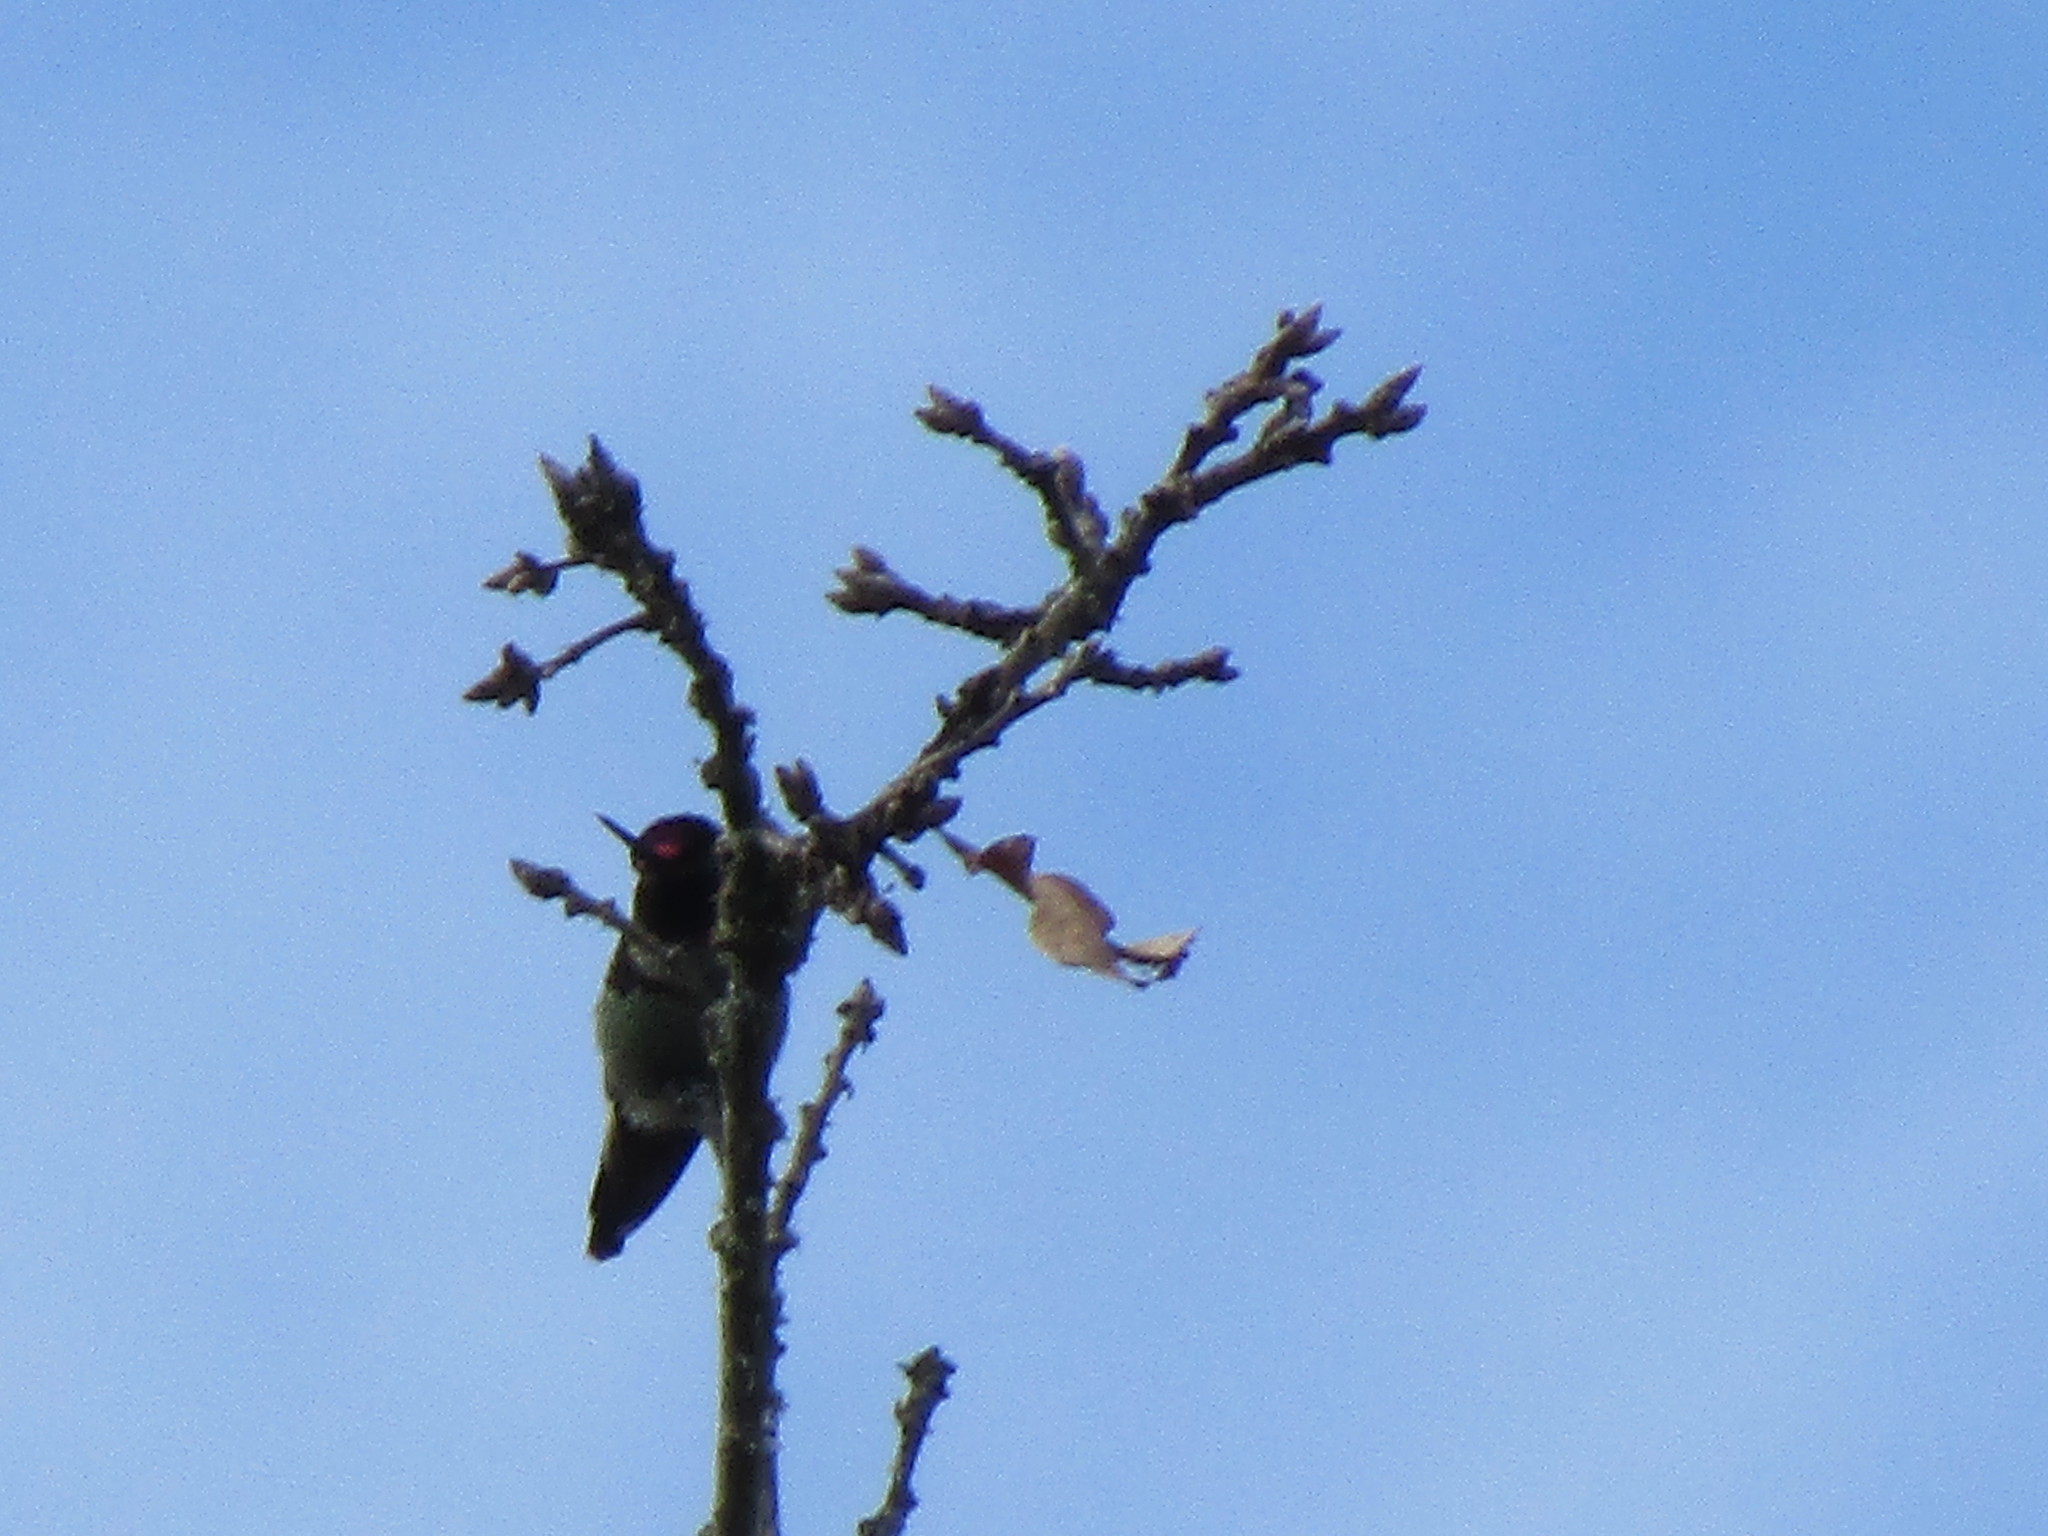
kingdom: Animalia
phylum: Chordata
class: Aves
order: Apodiformes
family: Trochilidae
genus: Calypte
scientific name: Calypte anna
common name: Anna's hummingbird
